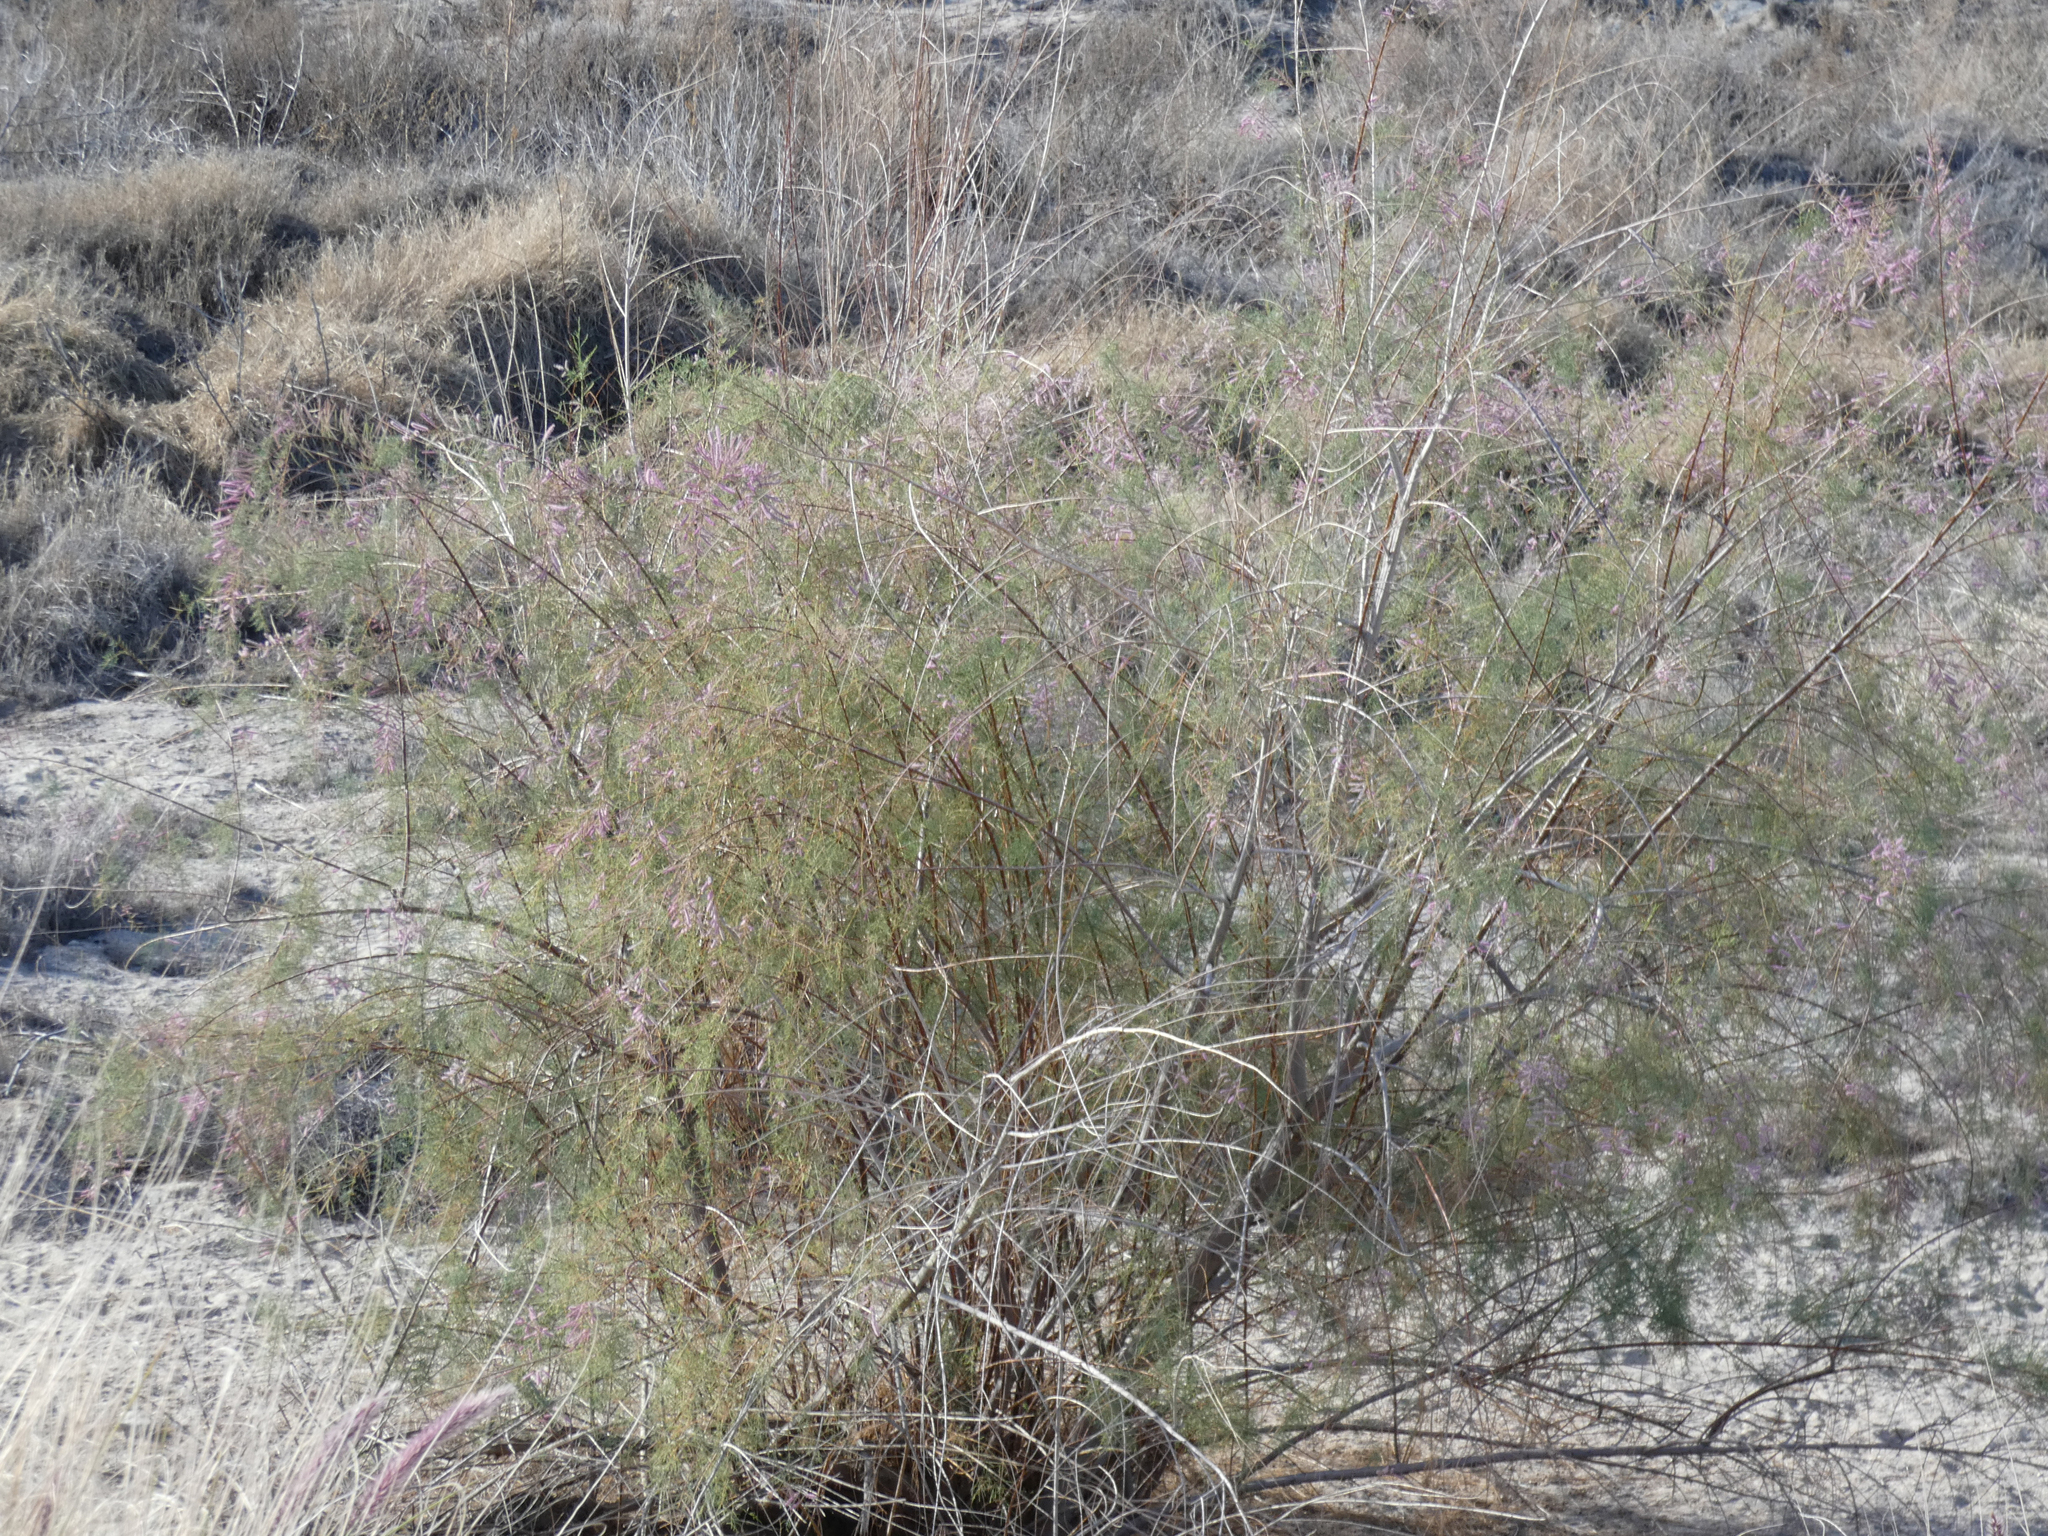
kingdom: Plantae
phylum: Tracheophyta
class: Magnoliopsida
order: Caryophyllales
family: Tamaricaceae
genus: Tamarix
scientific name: Tamarix ramosissima
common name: Pink tamarisk
